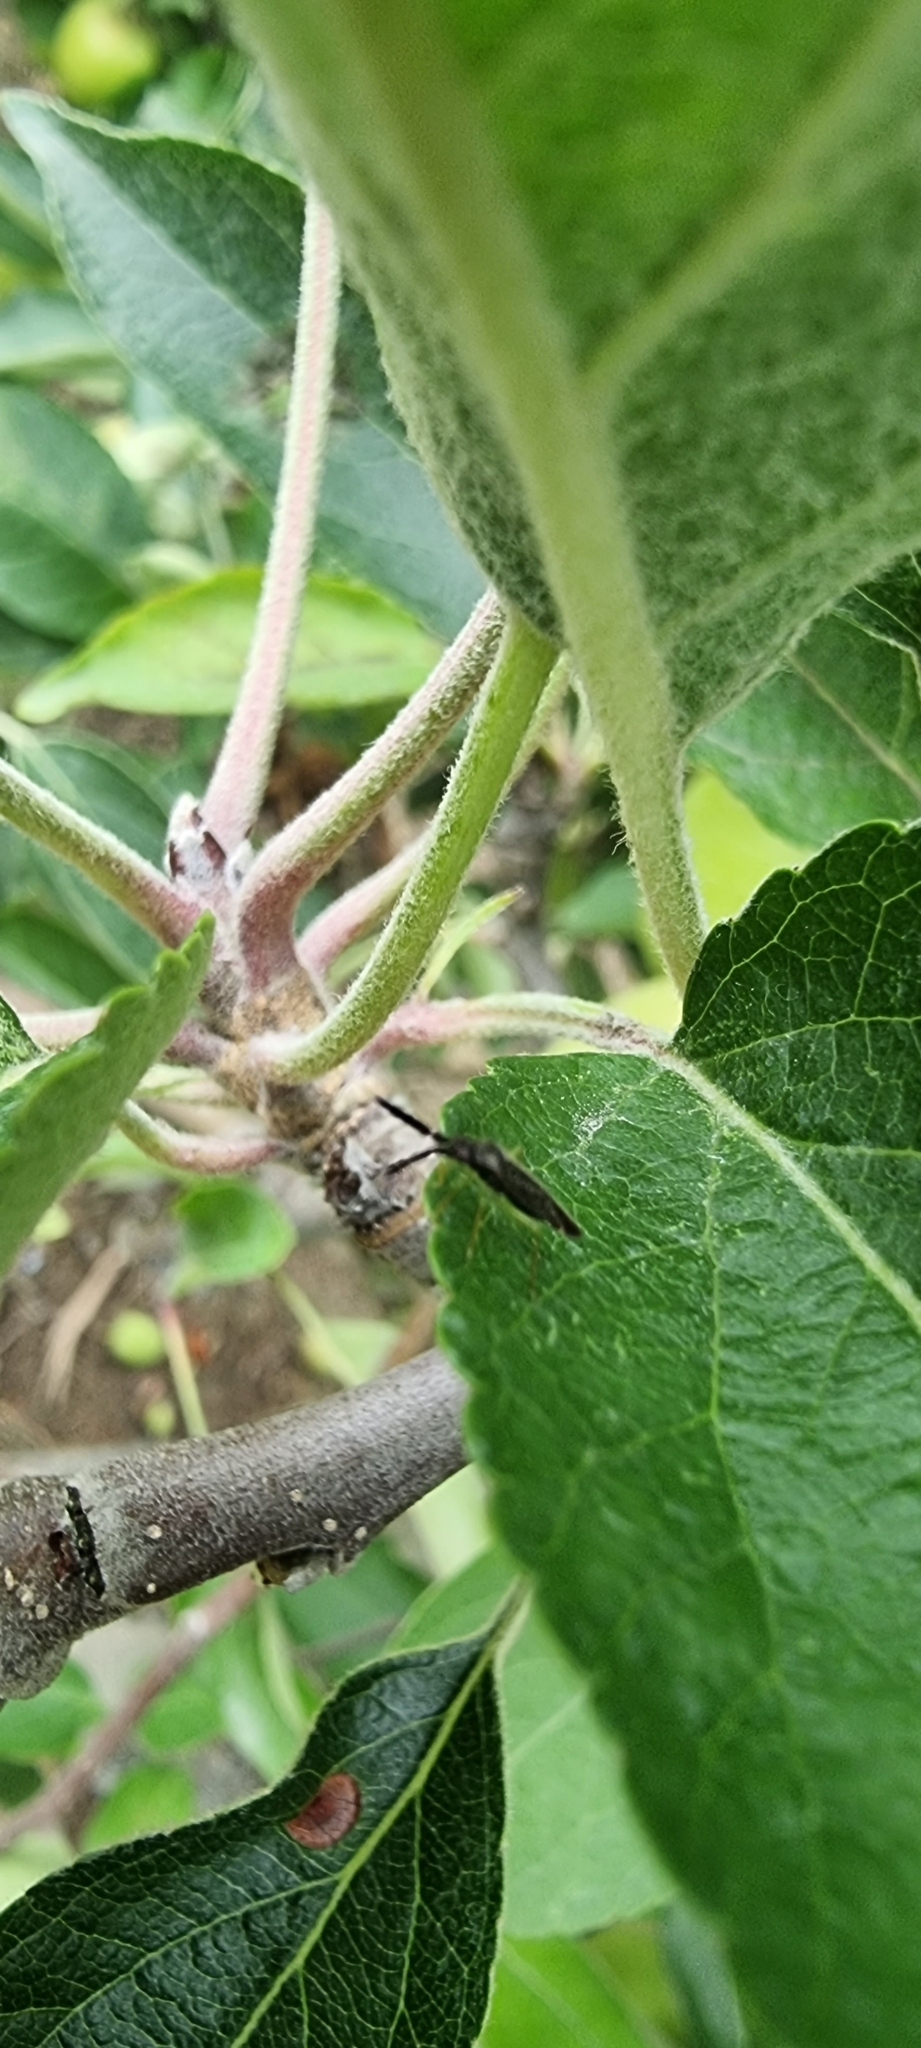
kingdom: Animalia
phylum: Arthropoda
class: Insecta
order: Hemiptera
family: Miridae
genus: Heterotoma
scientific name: Heterotoma planicornis
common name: Plant bug
